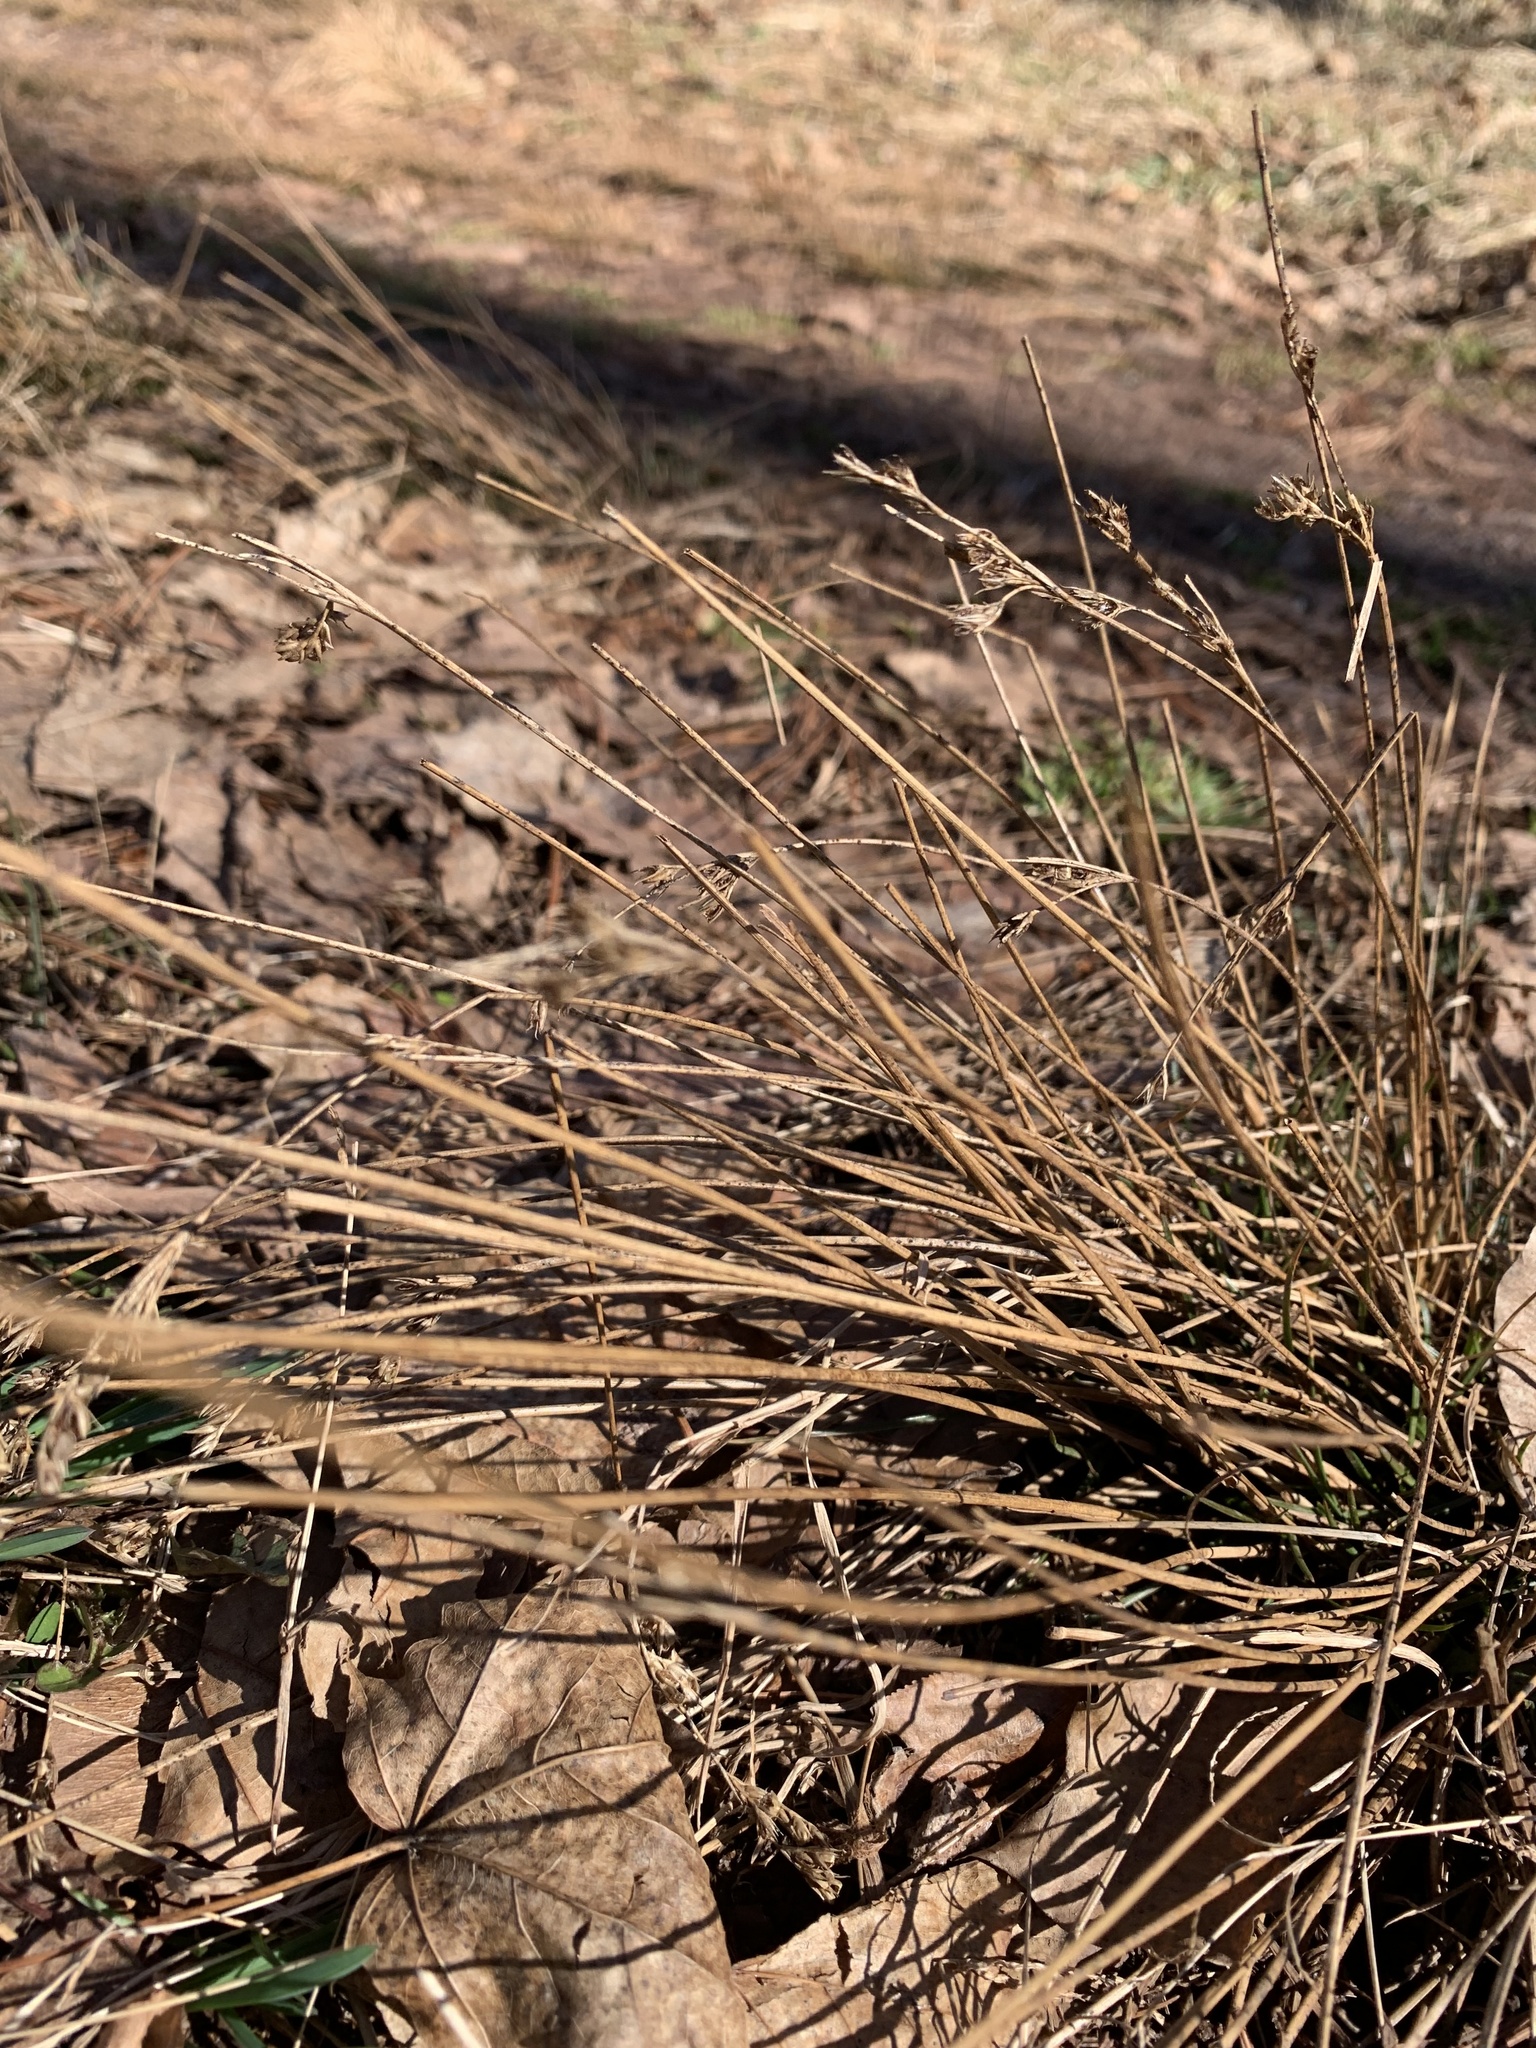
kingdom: Plantae
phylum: Tracheophyta
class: Liliopsida
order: Poales
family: Juncaceae
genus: Juncus
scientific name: Juncus tenuis
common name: Slender rush
